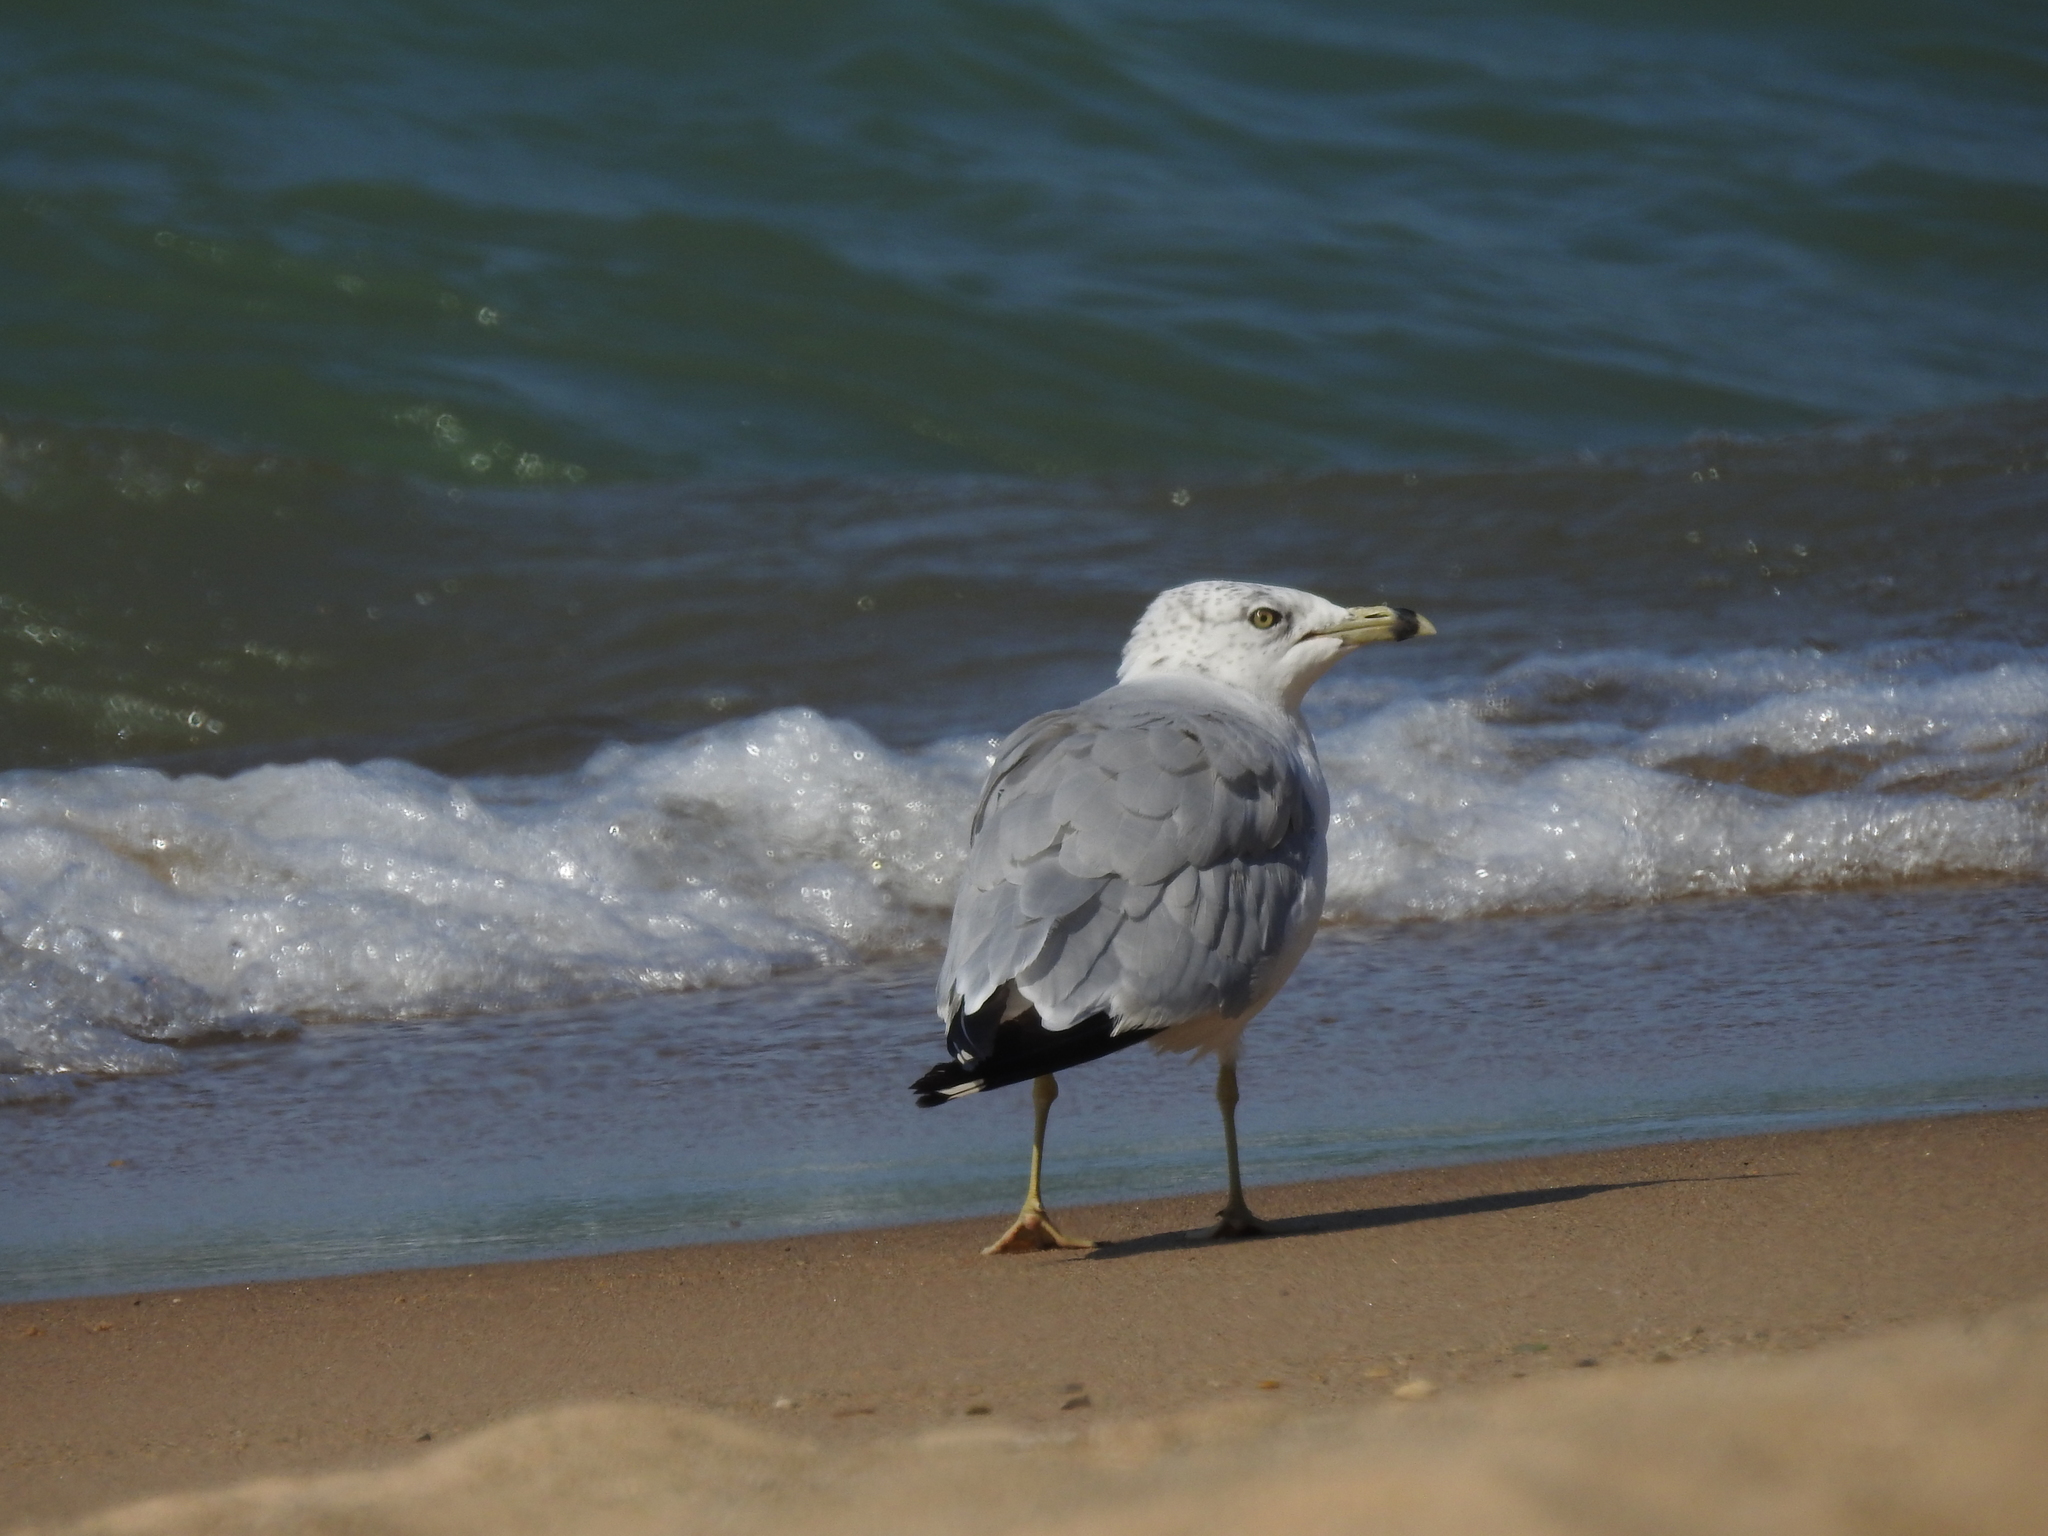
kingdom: Animalia
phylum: Chordata
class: Aves
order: Charadriiformes
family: Laridae
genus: Larus
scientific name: Larus delawarensis
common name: Ring-billed gull
